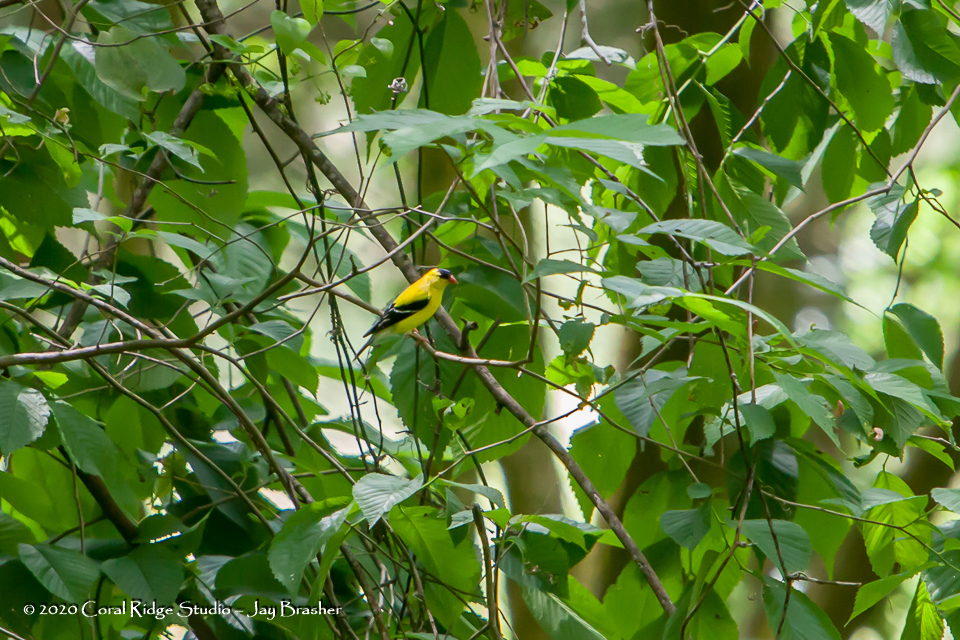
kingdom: Animalia
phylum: Chordata
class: Aves
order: Passeriformes
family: Fringillidae
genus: Spinus
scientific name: Spinus tristis
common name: American goldfinch
